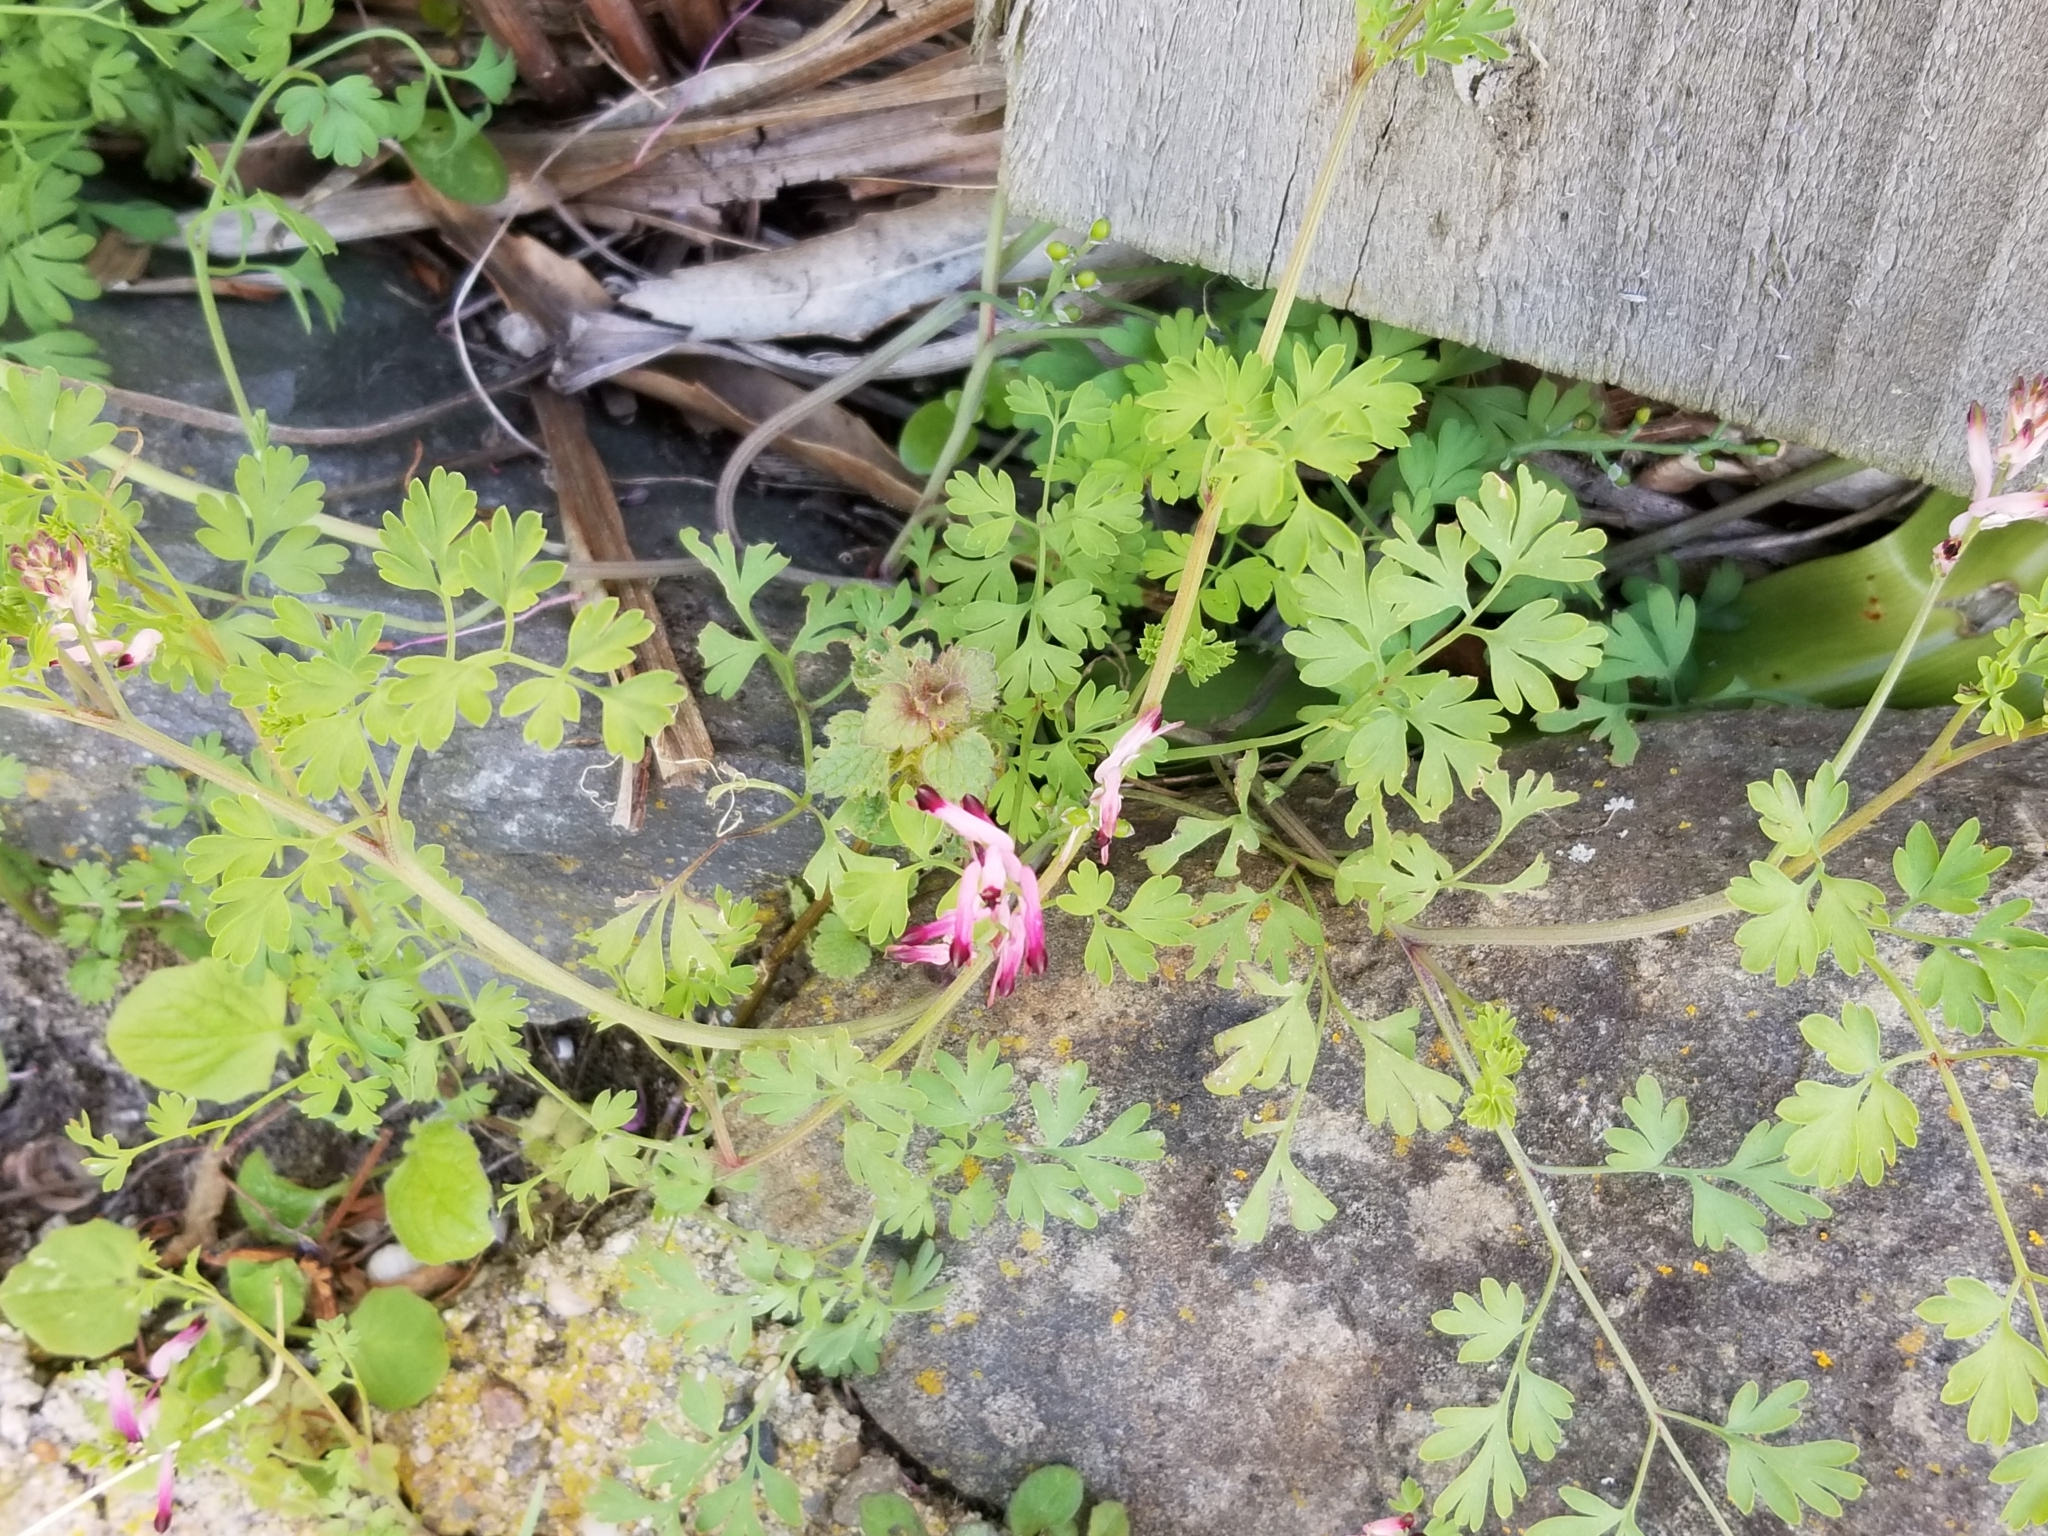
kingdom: Plantae
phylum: Tracheophyta
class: Magnoliopsida
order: Ranunculales
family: Papaveraceae
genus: Fumaria
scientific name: Fumaria muralis
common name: Common ramping-fumitory
